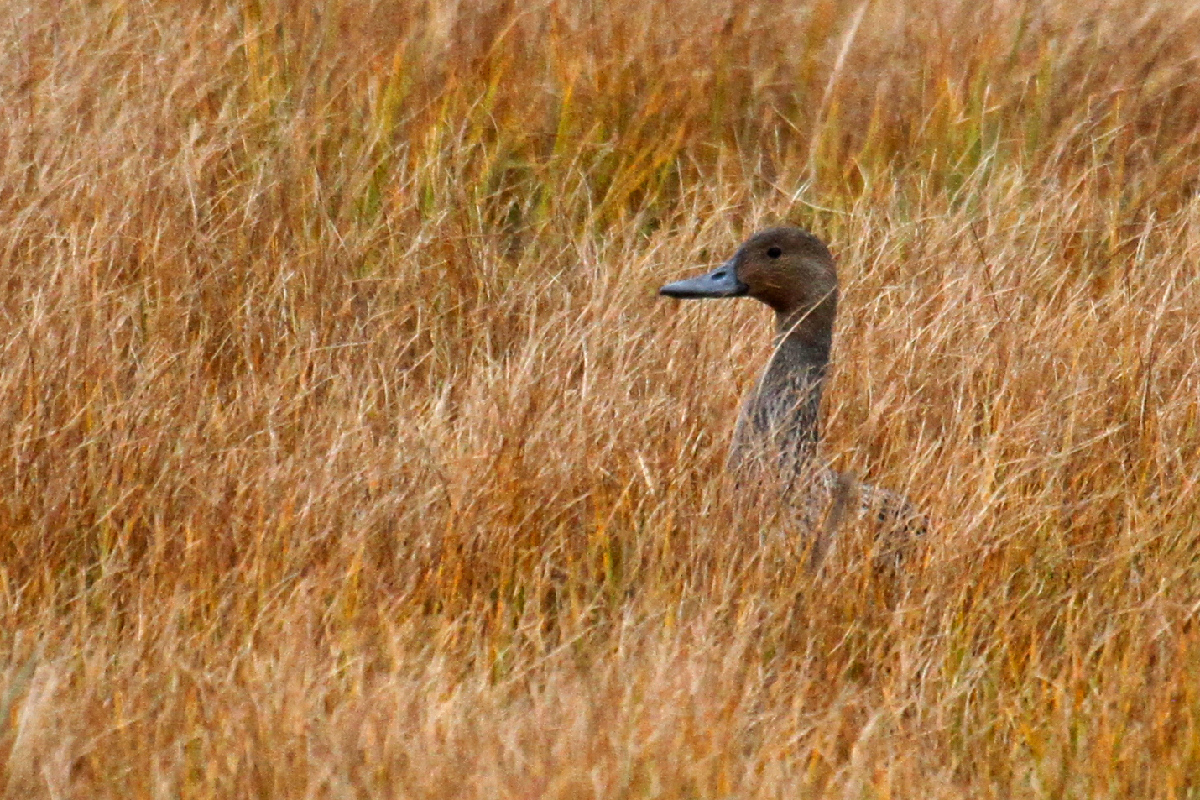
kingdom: Animalia
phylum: Chordata
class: Aves
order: Anseriformes
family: Anatidae
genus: Anas
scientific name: Anas acuta
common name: Northern pintail
